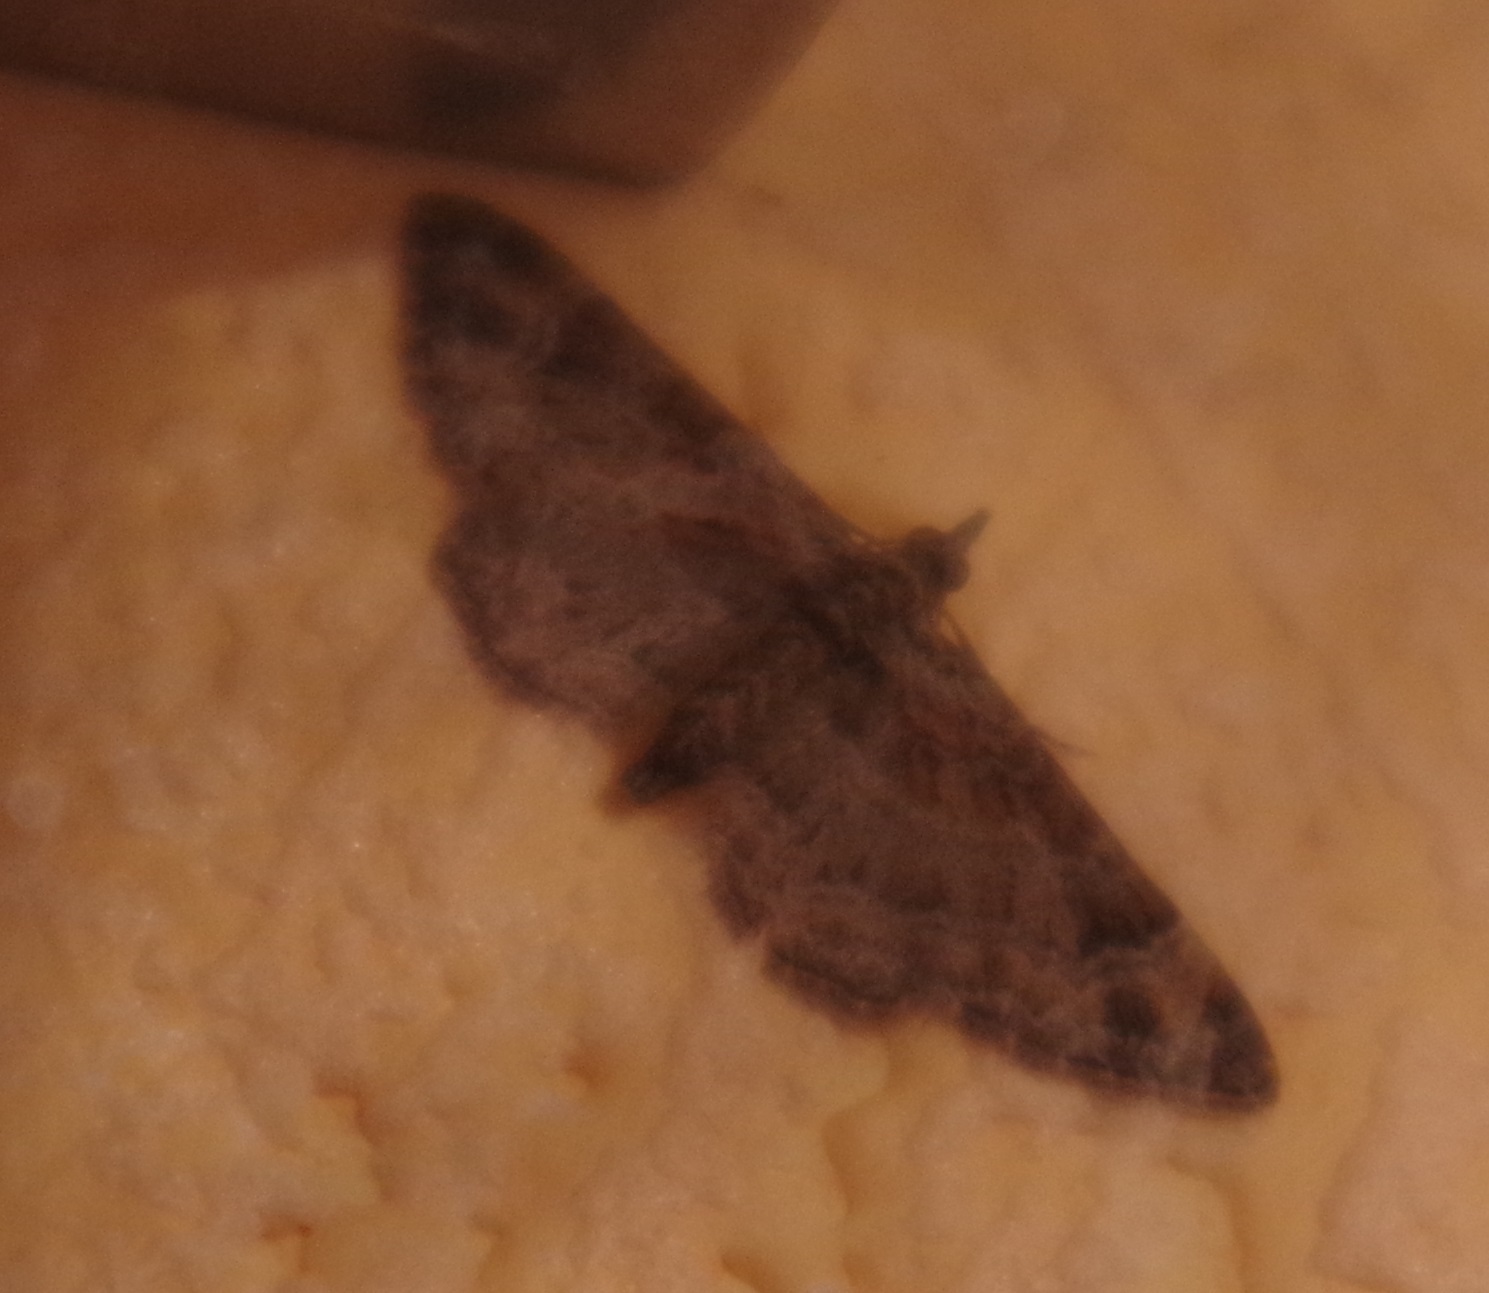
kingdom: Animalia
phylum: Arthropoda
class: Insecta
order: Lepidoptera
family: Geometridae
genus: Gymnoscelis
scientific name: Gymnoscelis rufifasciata
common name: Double-striped pug
